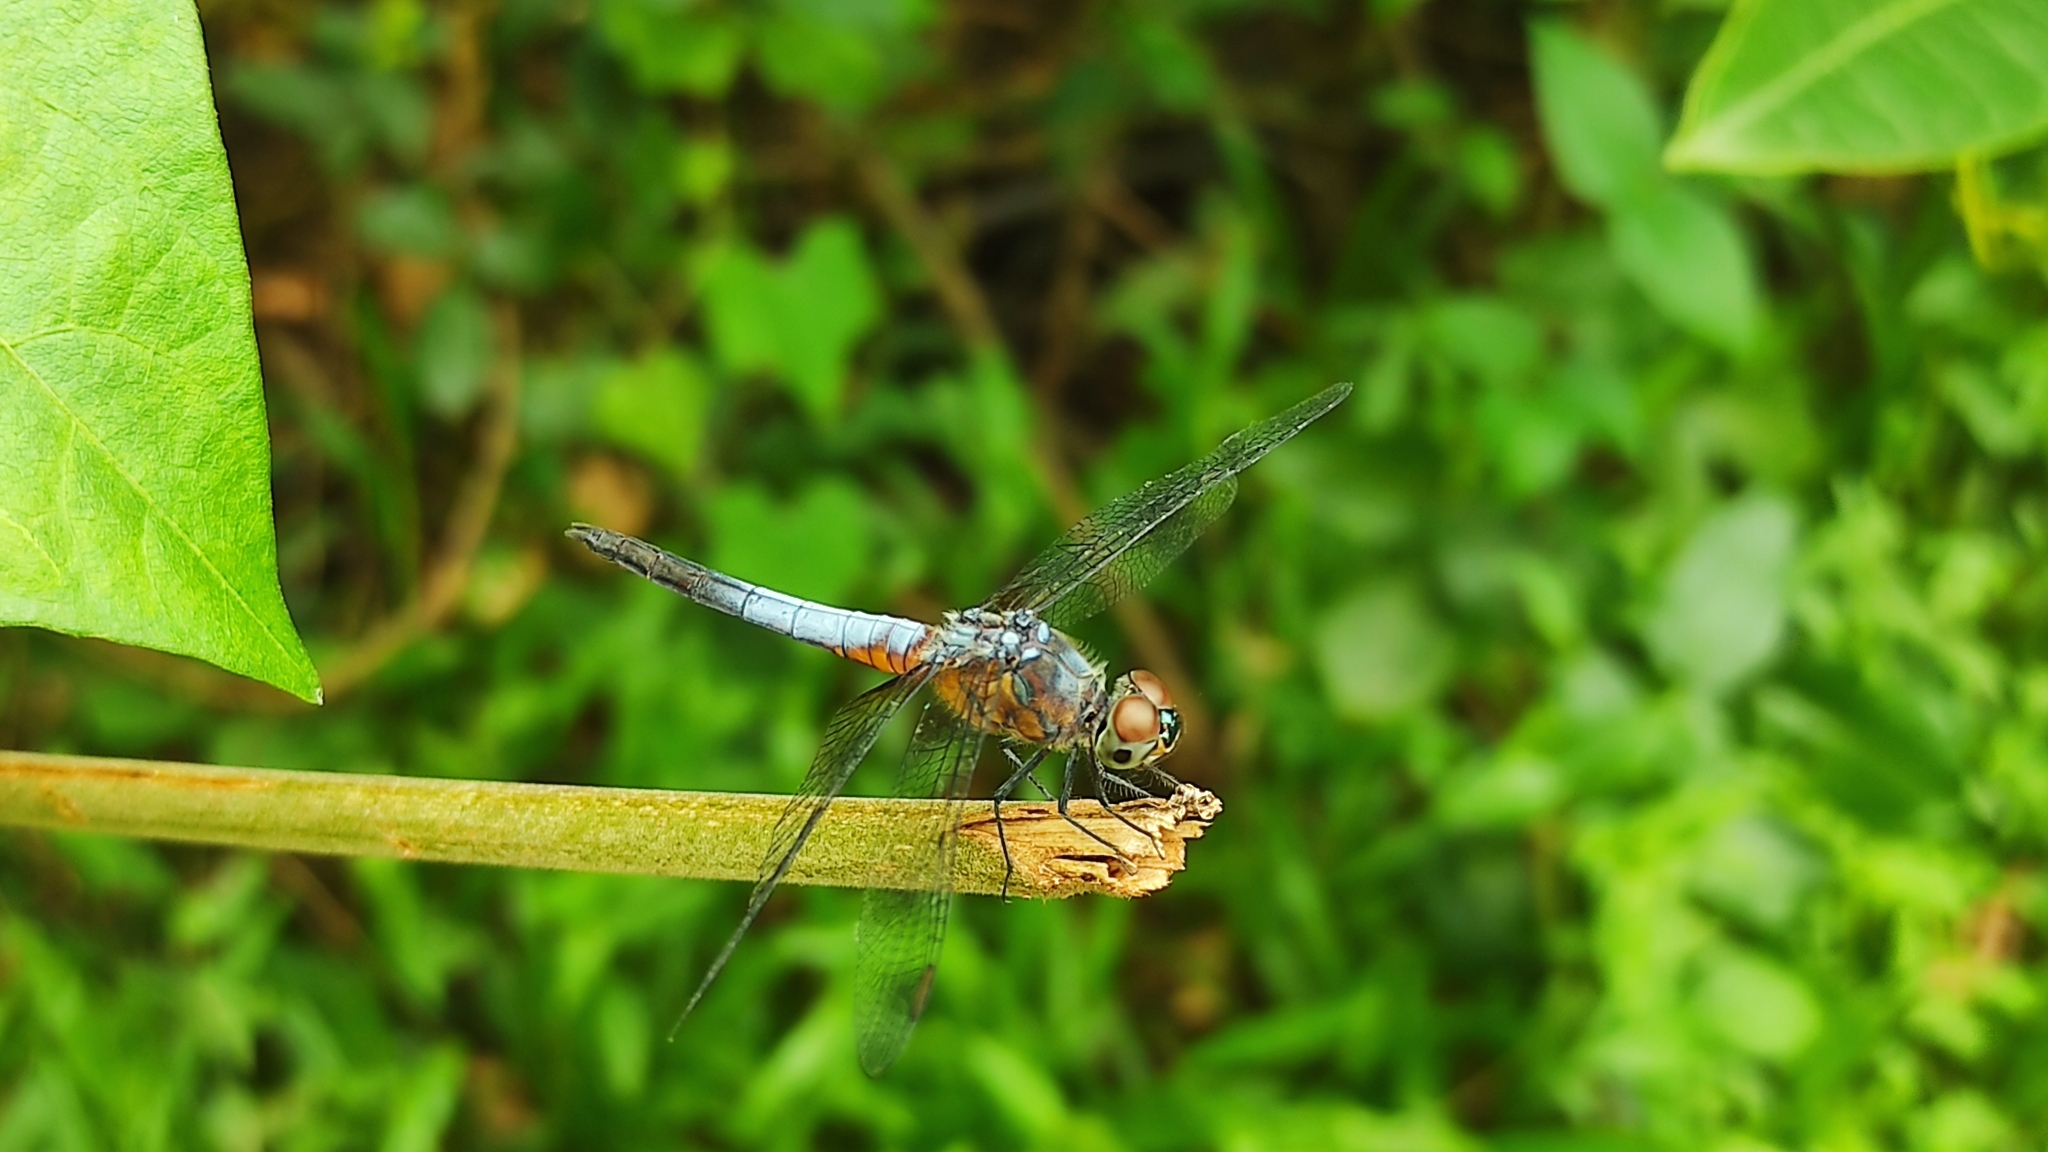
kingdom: Animalia
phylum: Arthropoda
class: Insecta
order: Odonata
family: Libellulidae
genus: Brachydiplax
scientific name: Brachydiplax chalybea
